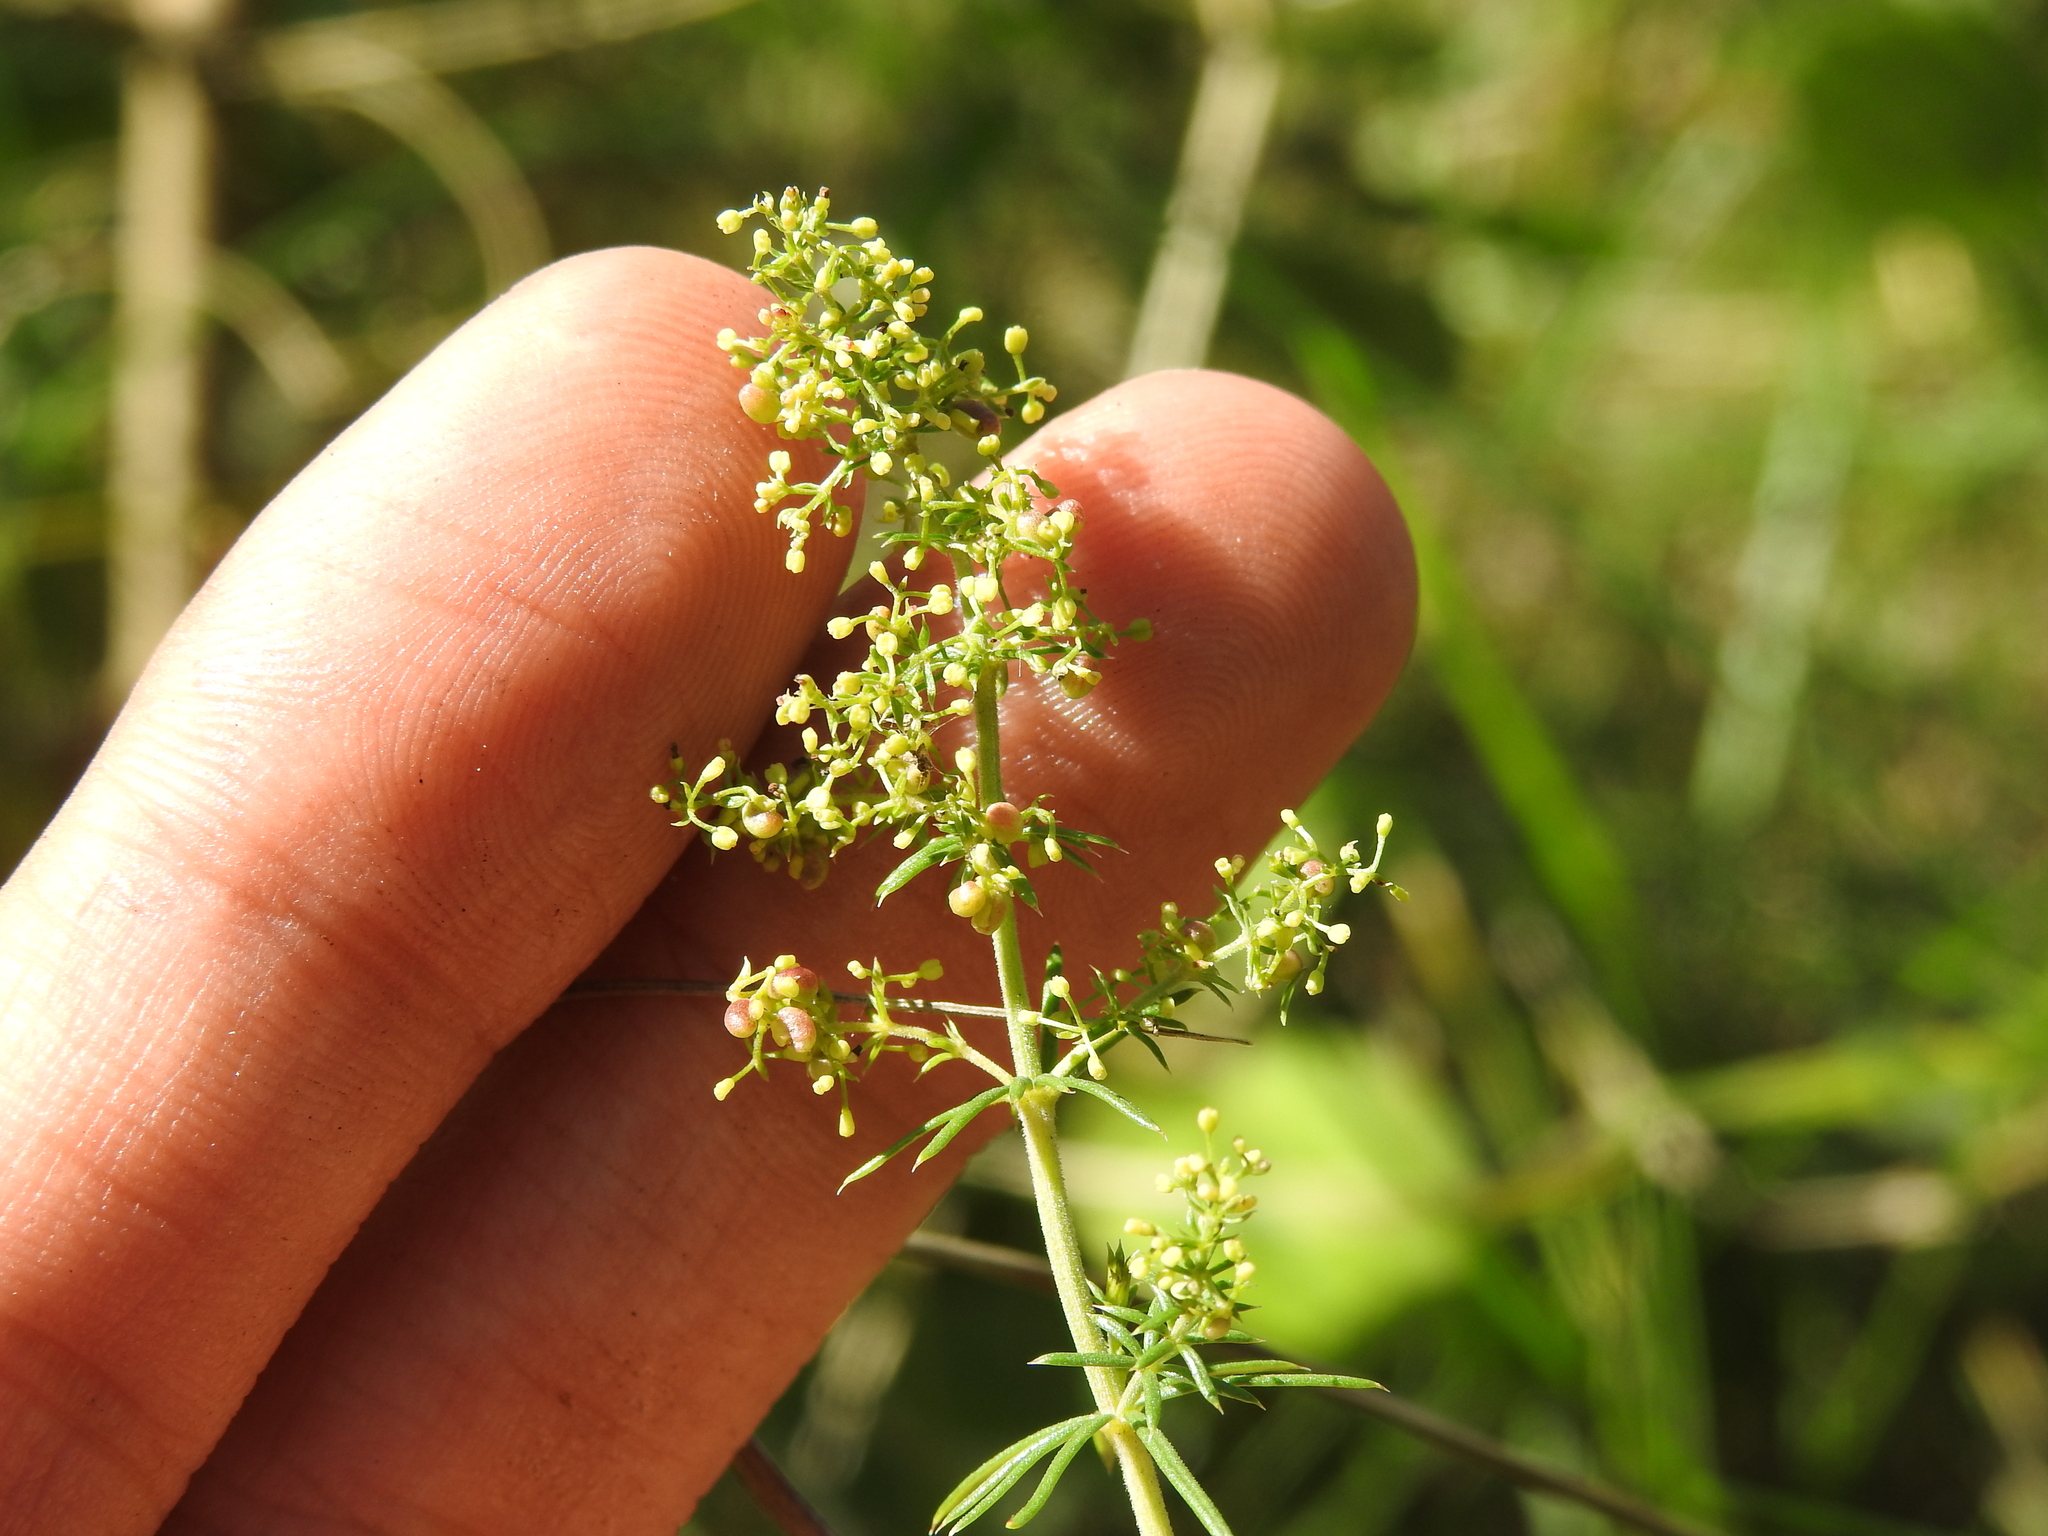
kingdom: Plantae
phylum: Tracheophyta
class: Magnoliopsida
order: Gentianales
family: Rubiaceae
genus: Galium
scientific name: Galium verum
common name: Lady's bedstraw
